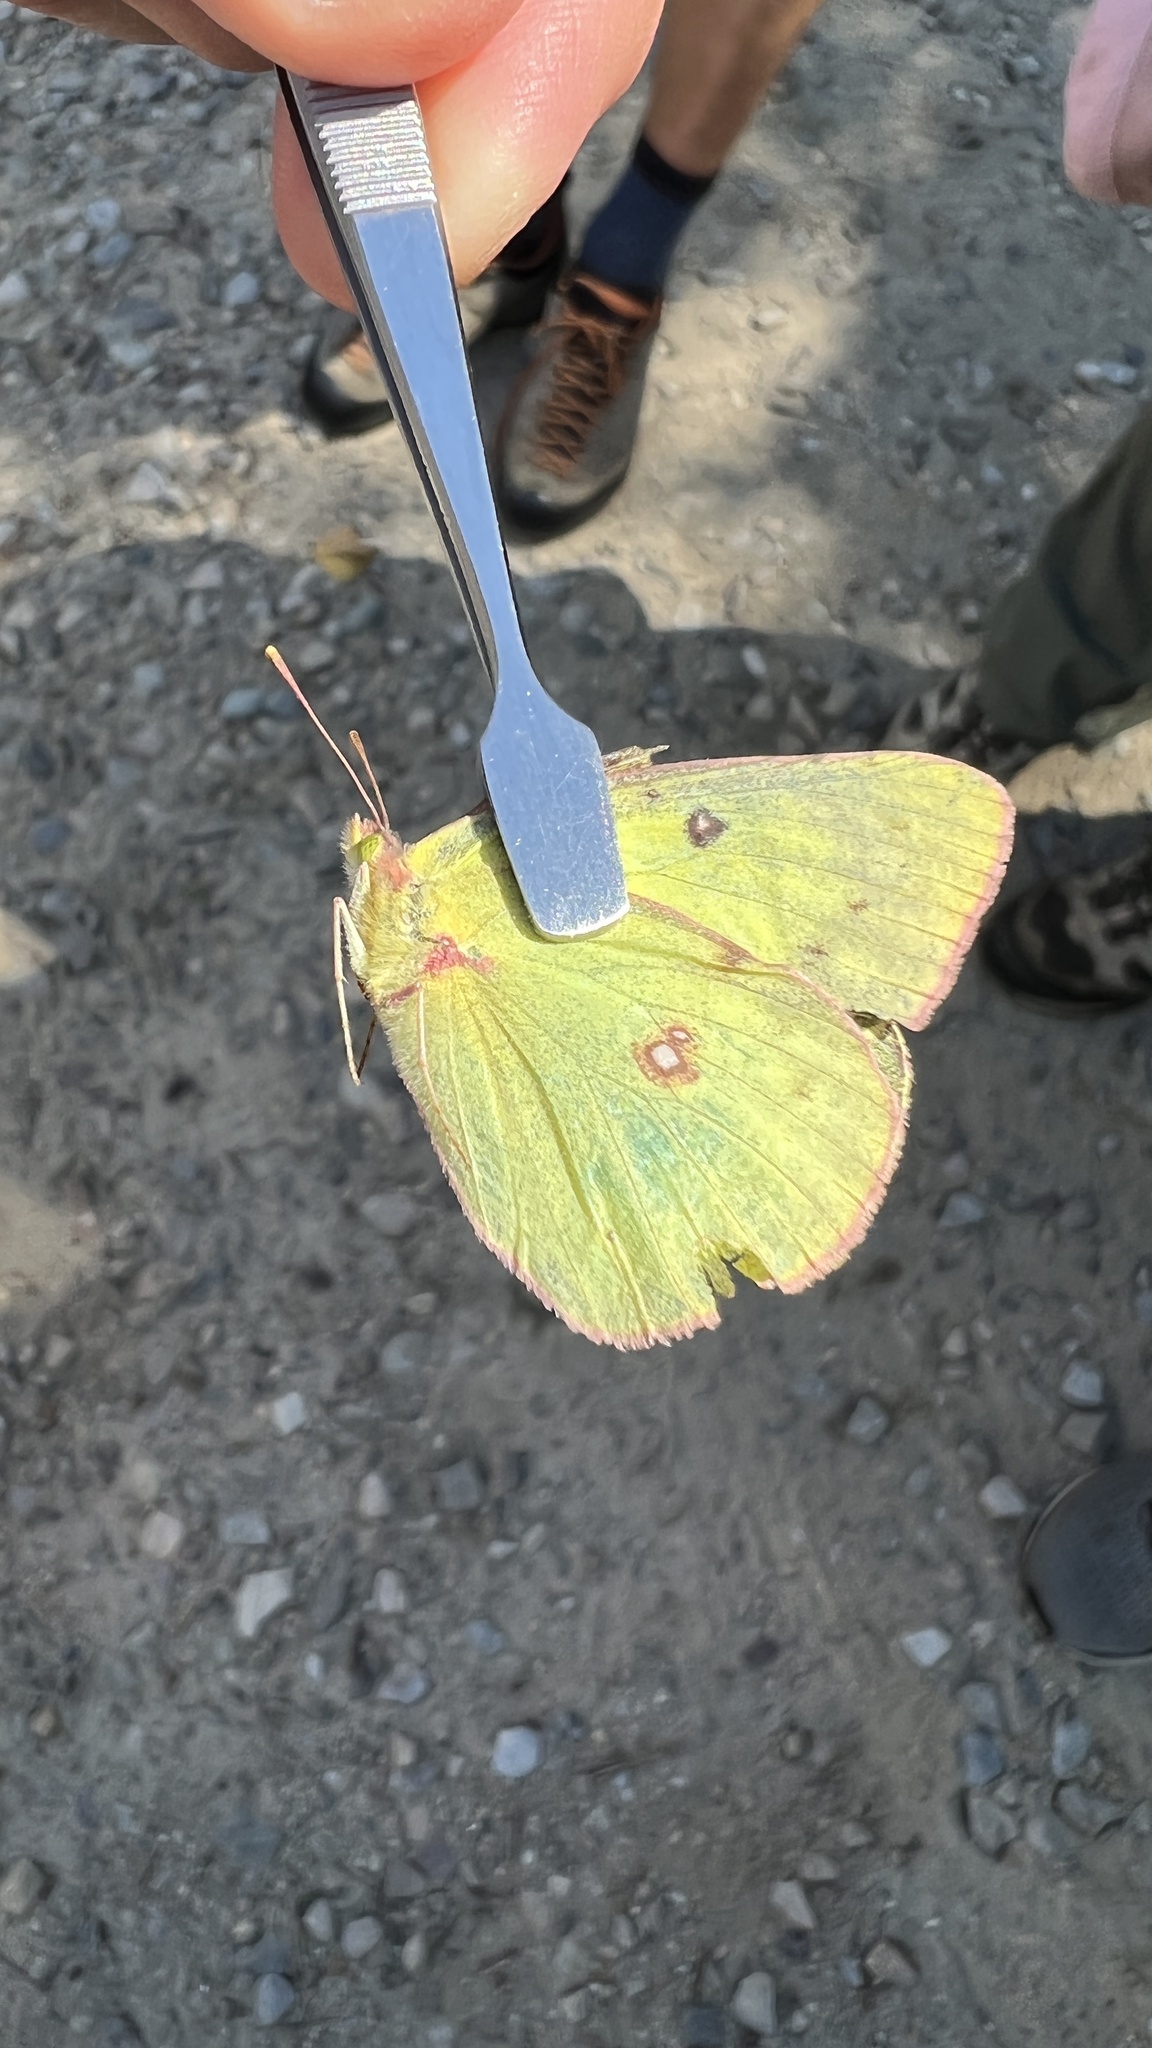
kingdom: Animalia
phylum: Arthropoda
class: Insecta
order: Lepidoptera
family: Pieridae
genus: Colias
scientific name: Colias philodice
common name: Clouded sulphur
